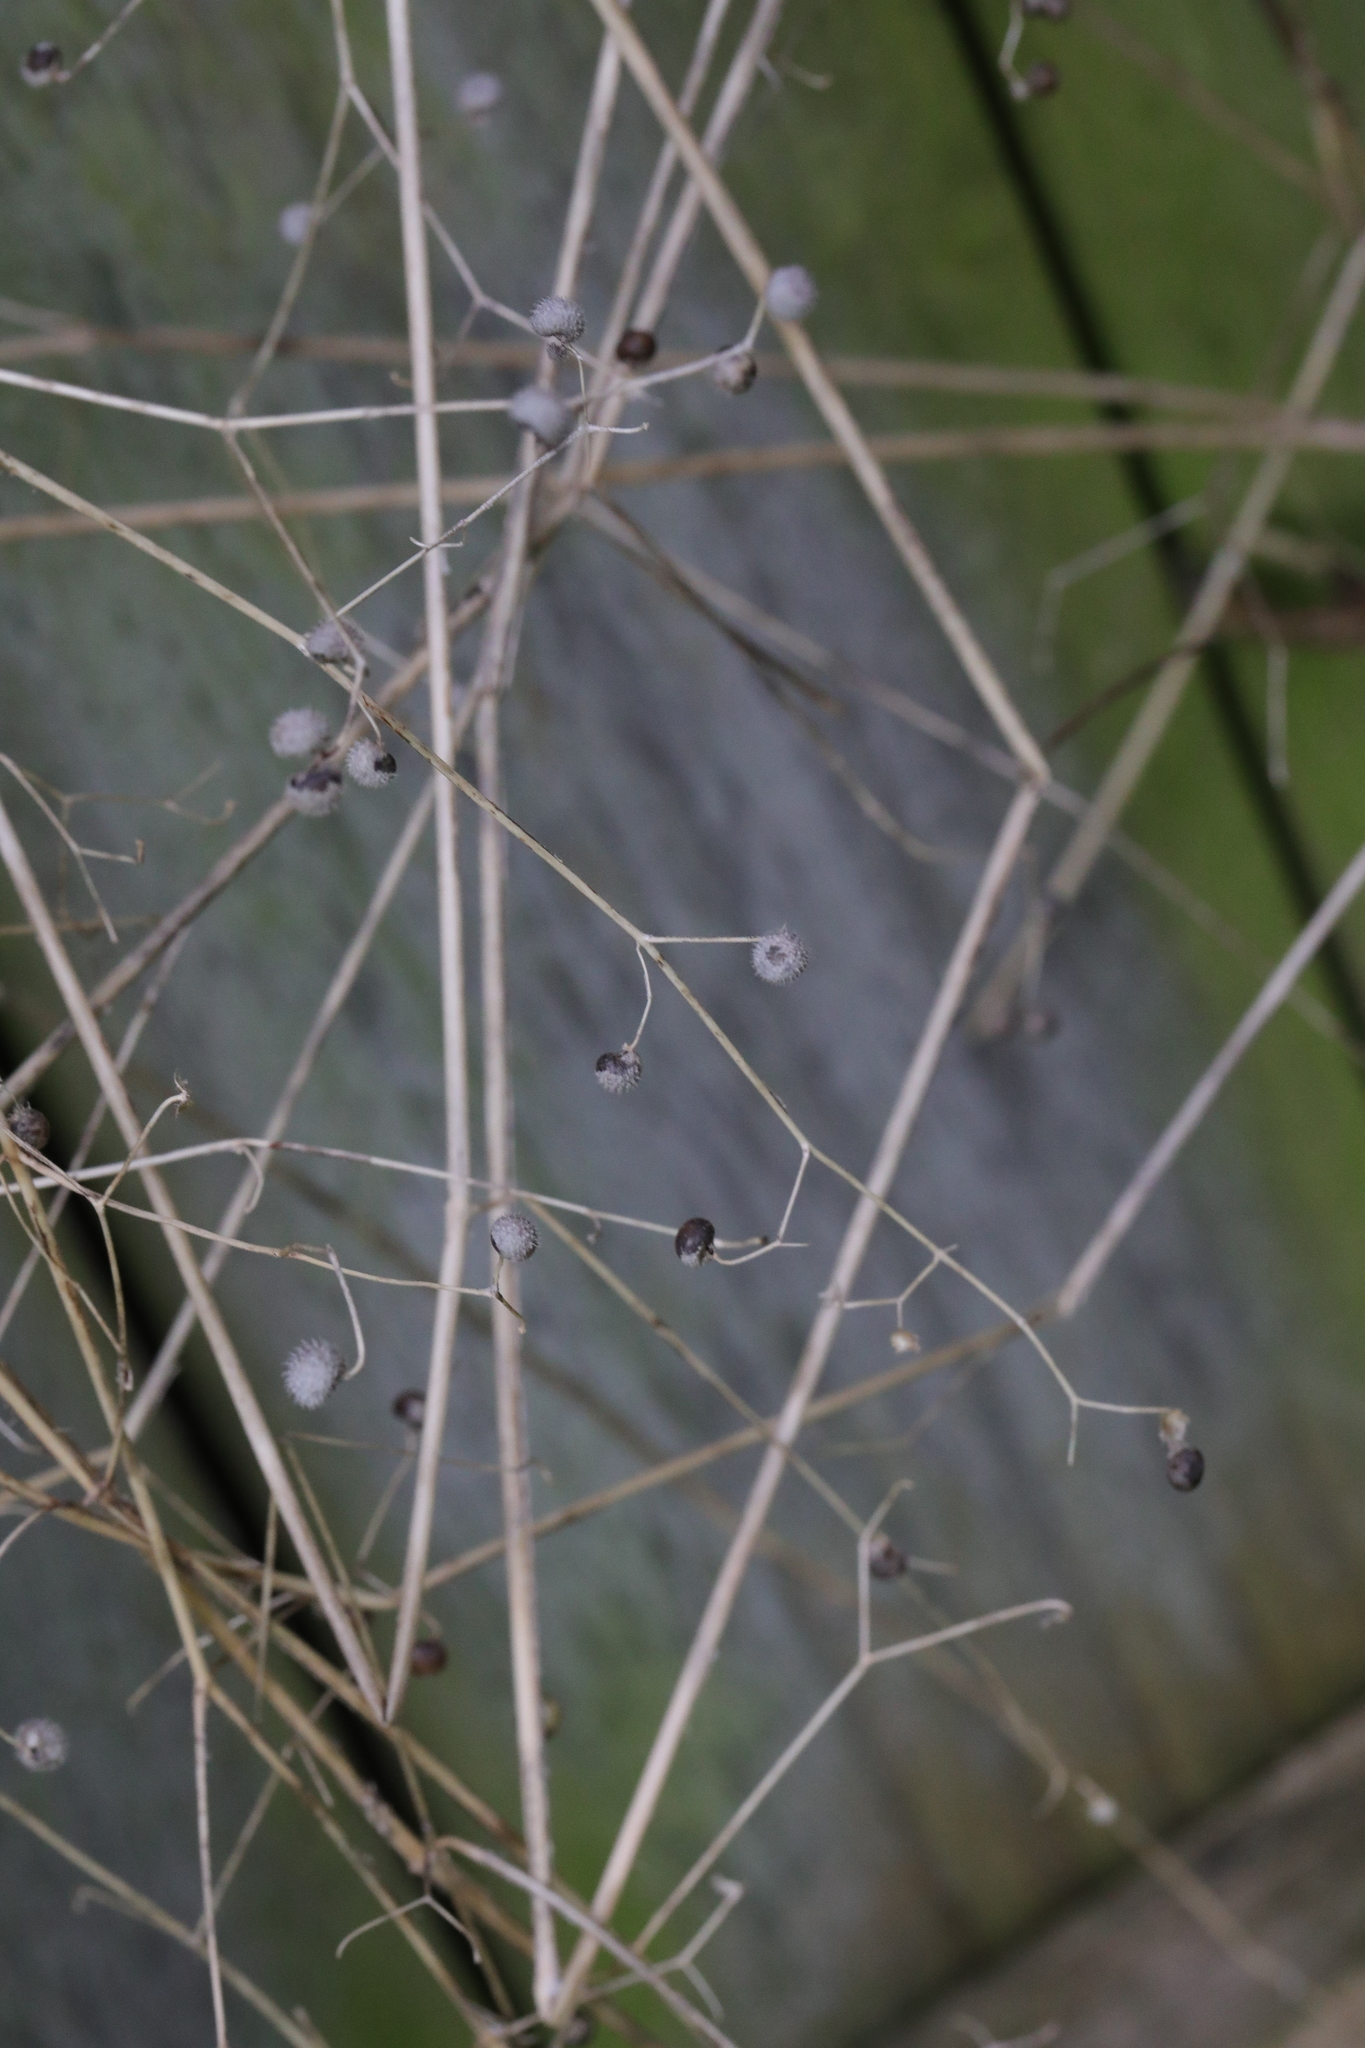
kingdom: Plantae
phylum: Tracheophyta
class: Magnoliopsida
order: Gentianales
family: Rubiaceae
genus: Galium
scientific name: Galium aparine
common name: Cleavers
